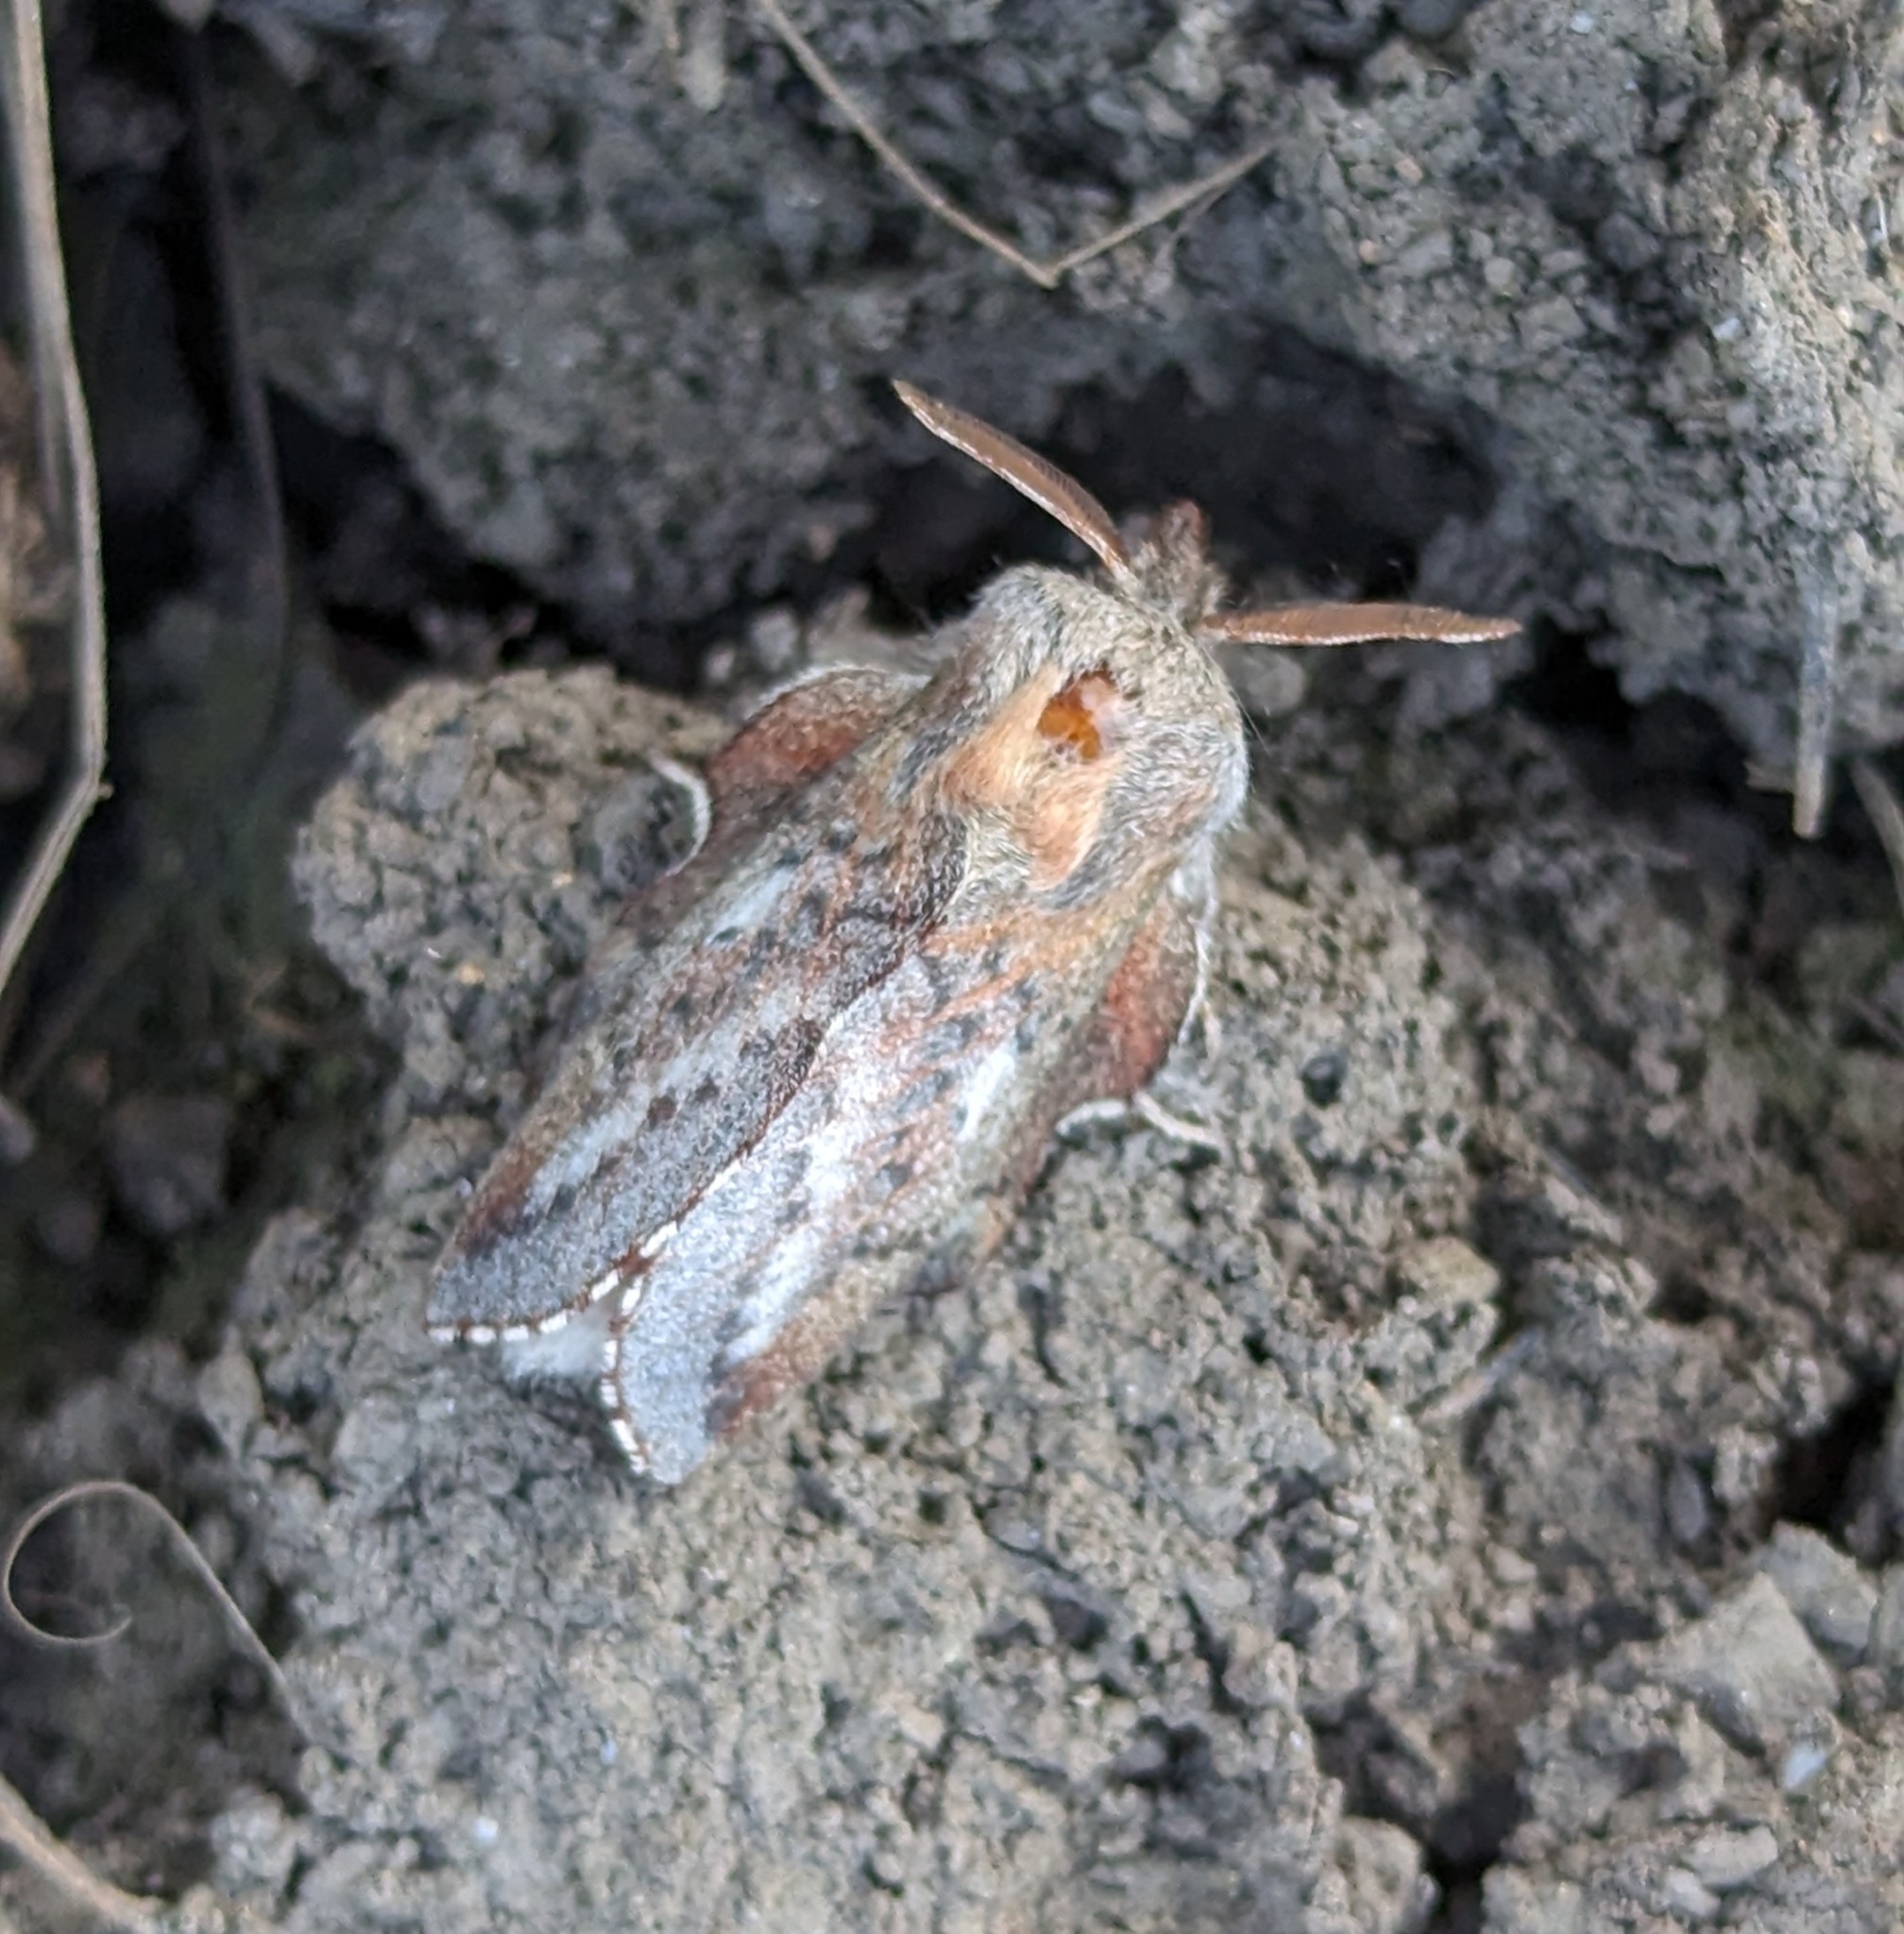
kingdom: Animalia
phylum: Arthropoda
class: Insecta
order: Lepidoptera
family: Lasiocampidae
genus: Phyllodesma
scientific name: Phyllodesma americana
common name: American lappet moth
